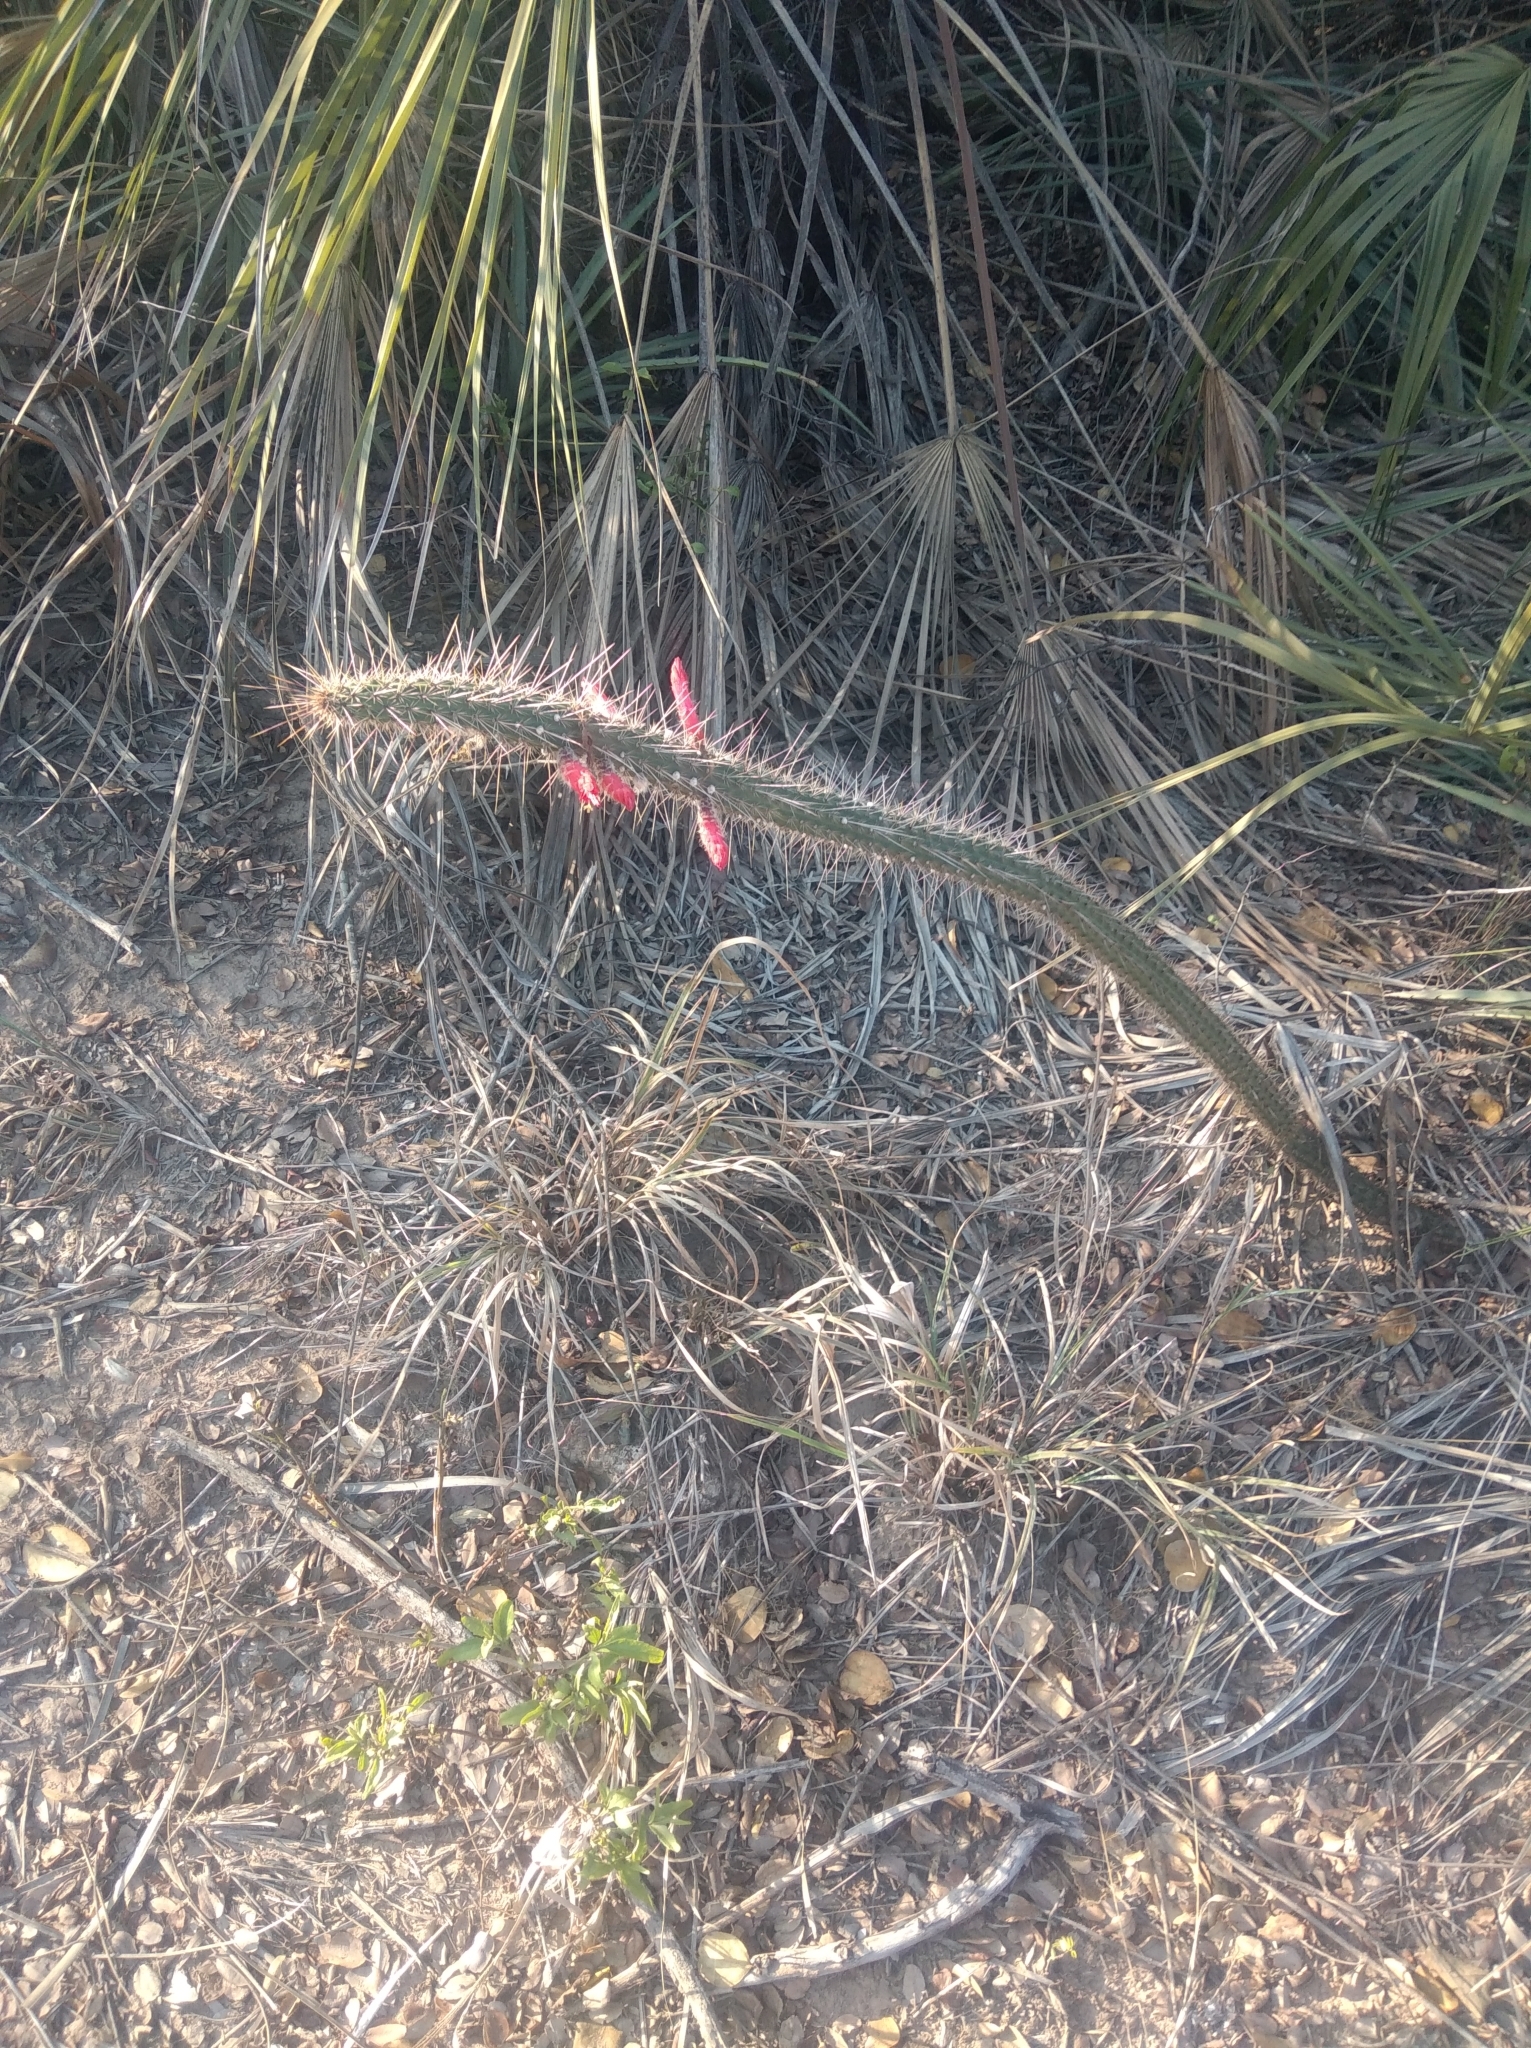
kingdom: Plantae
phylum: Tracheophyta
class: Magnoliopsida
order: Caryophyllales
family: Cactaceae
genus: Cleistocactus
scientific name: Cleistocactus baumannii
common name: Scarlet-bugler
